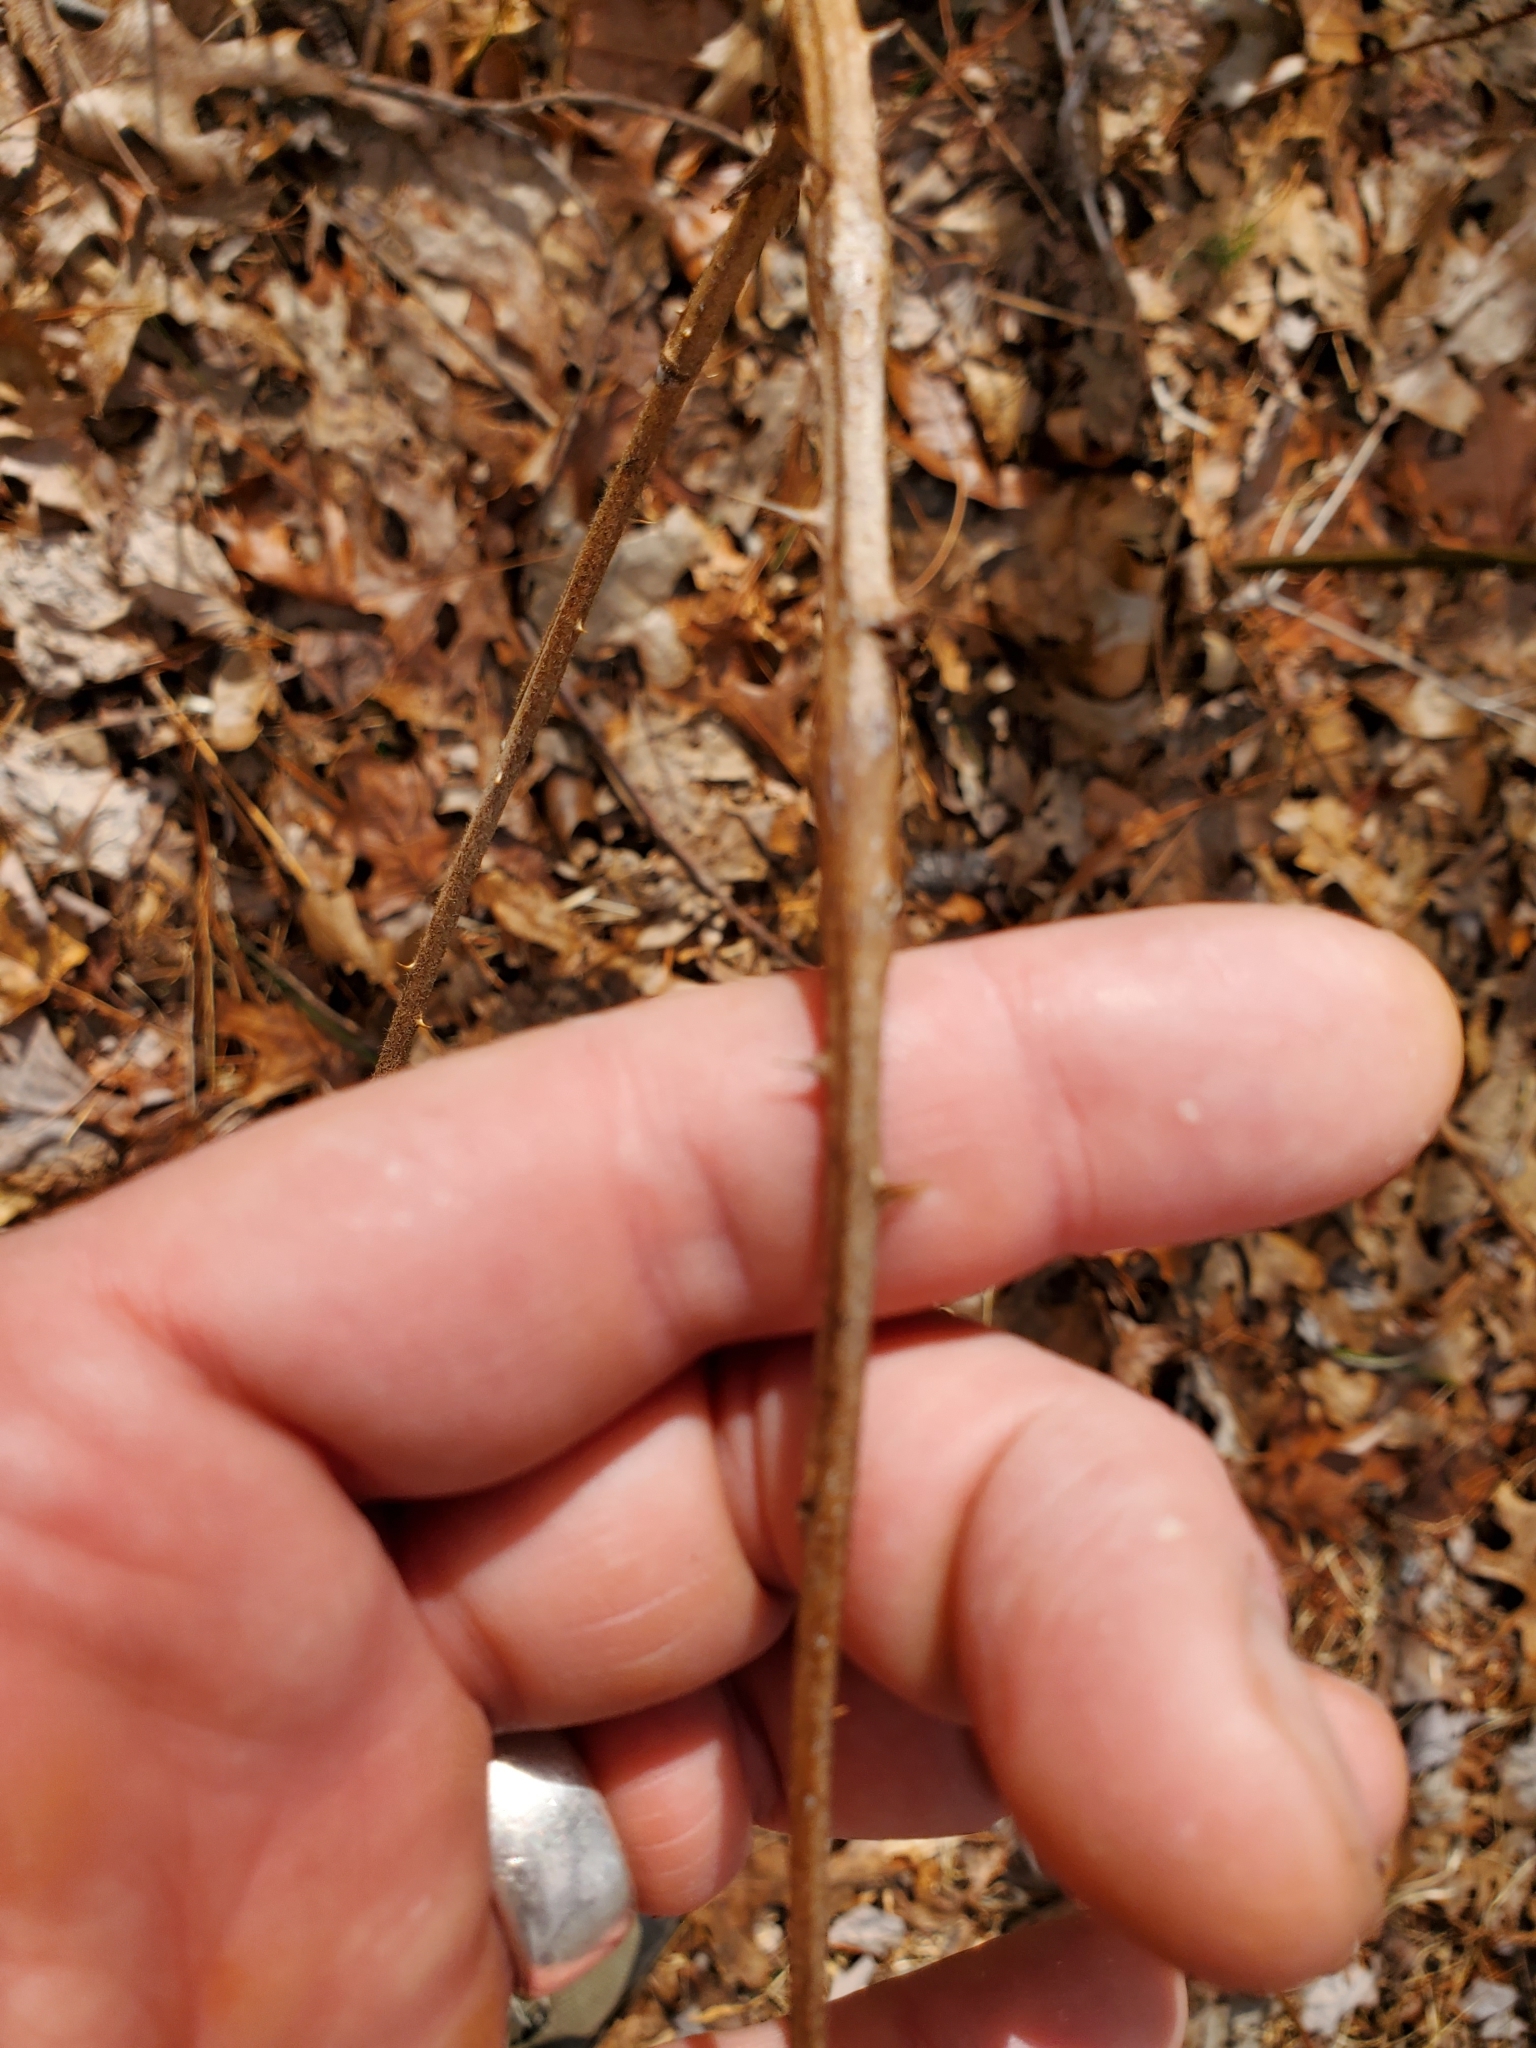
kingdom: Animalia
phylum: Arthropoda
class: Insecta
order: Hymenoptera
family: Cynipidae
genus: Diastrophus
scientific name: Diastrophus
